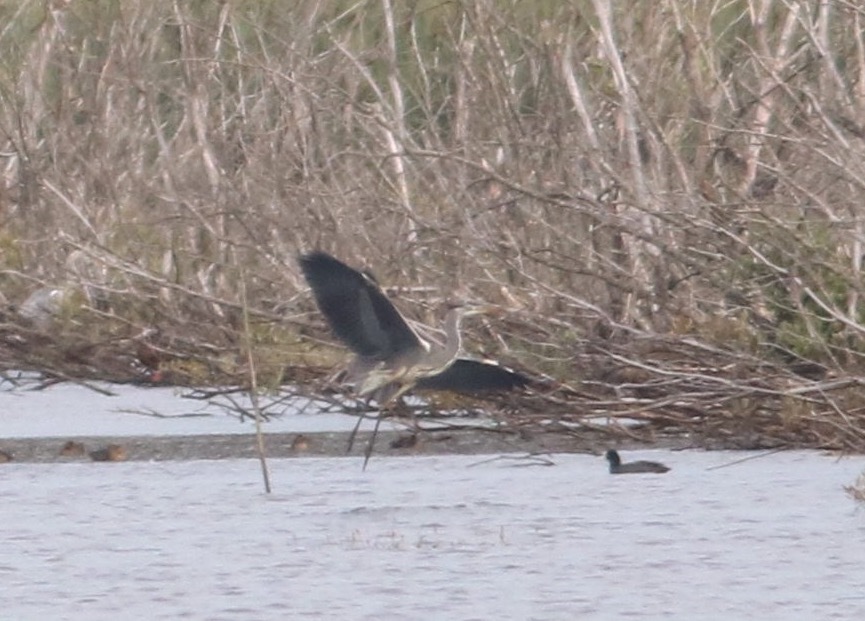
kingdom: Animalia
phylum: Chordata
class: Aves
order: Pelecaniformes
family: Ardeidae
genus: Ardea
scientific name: Ardea cinerea
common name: Grey heron
